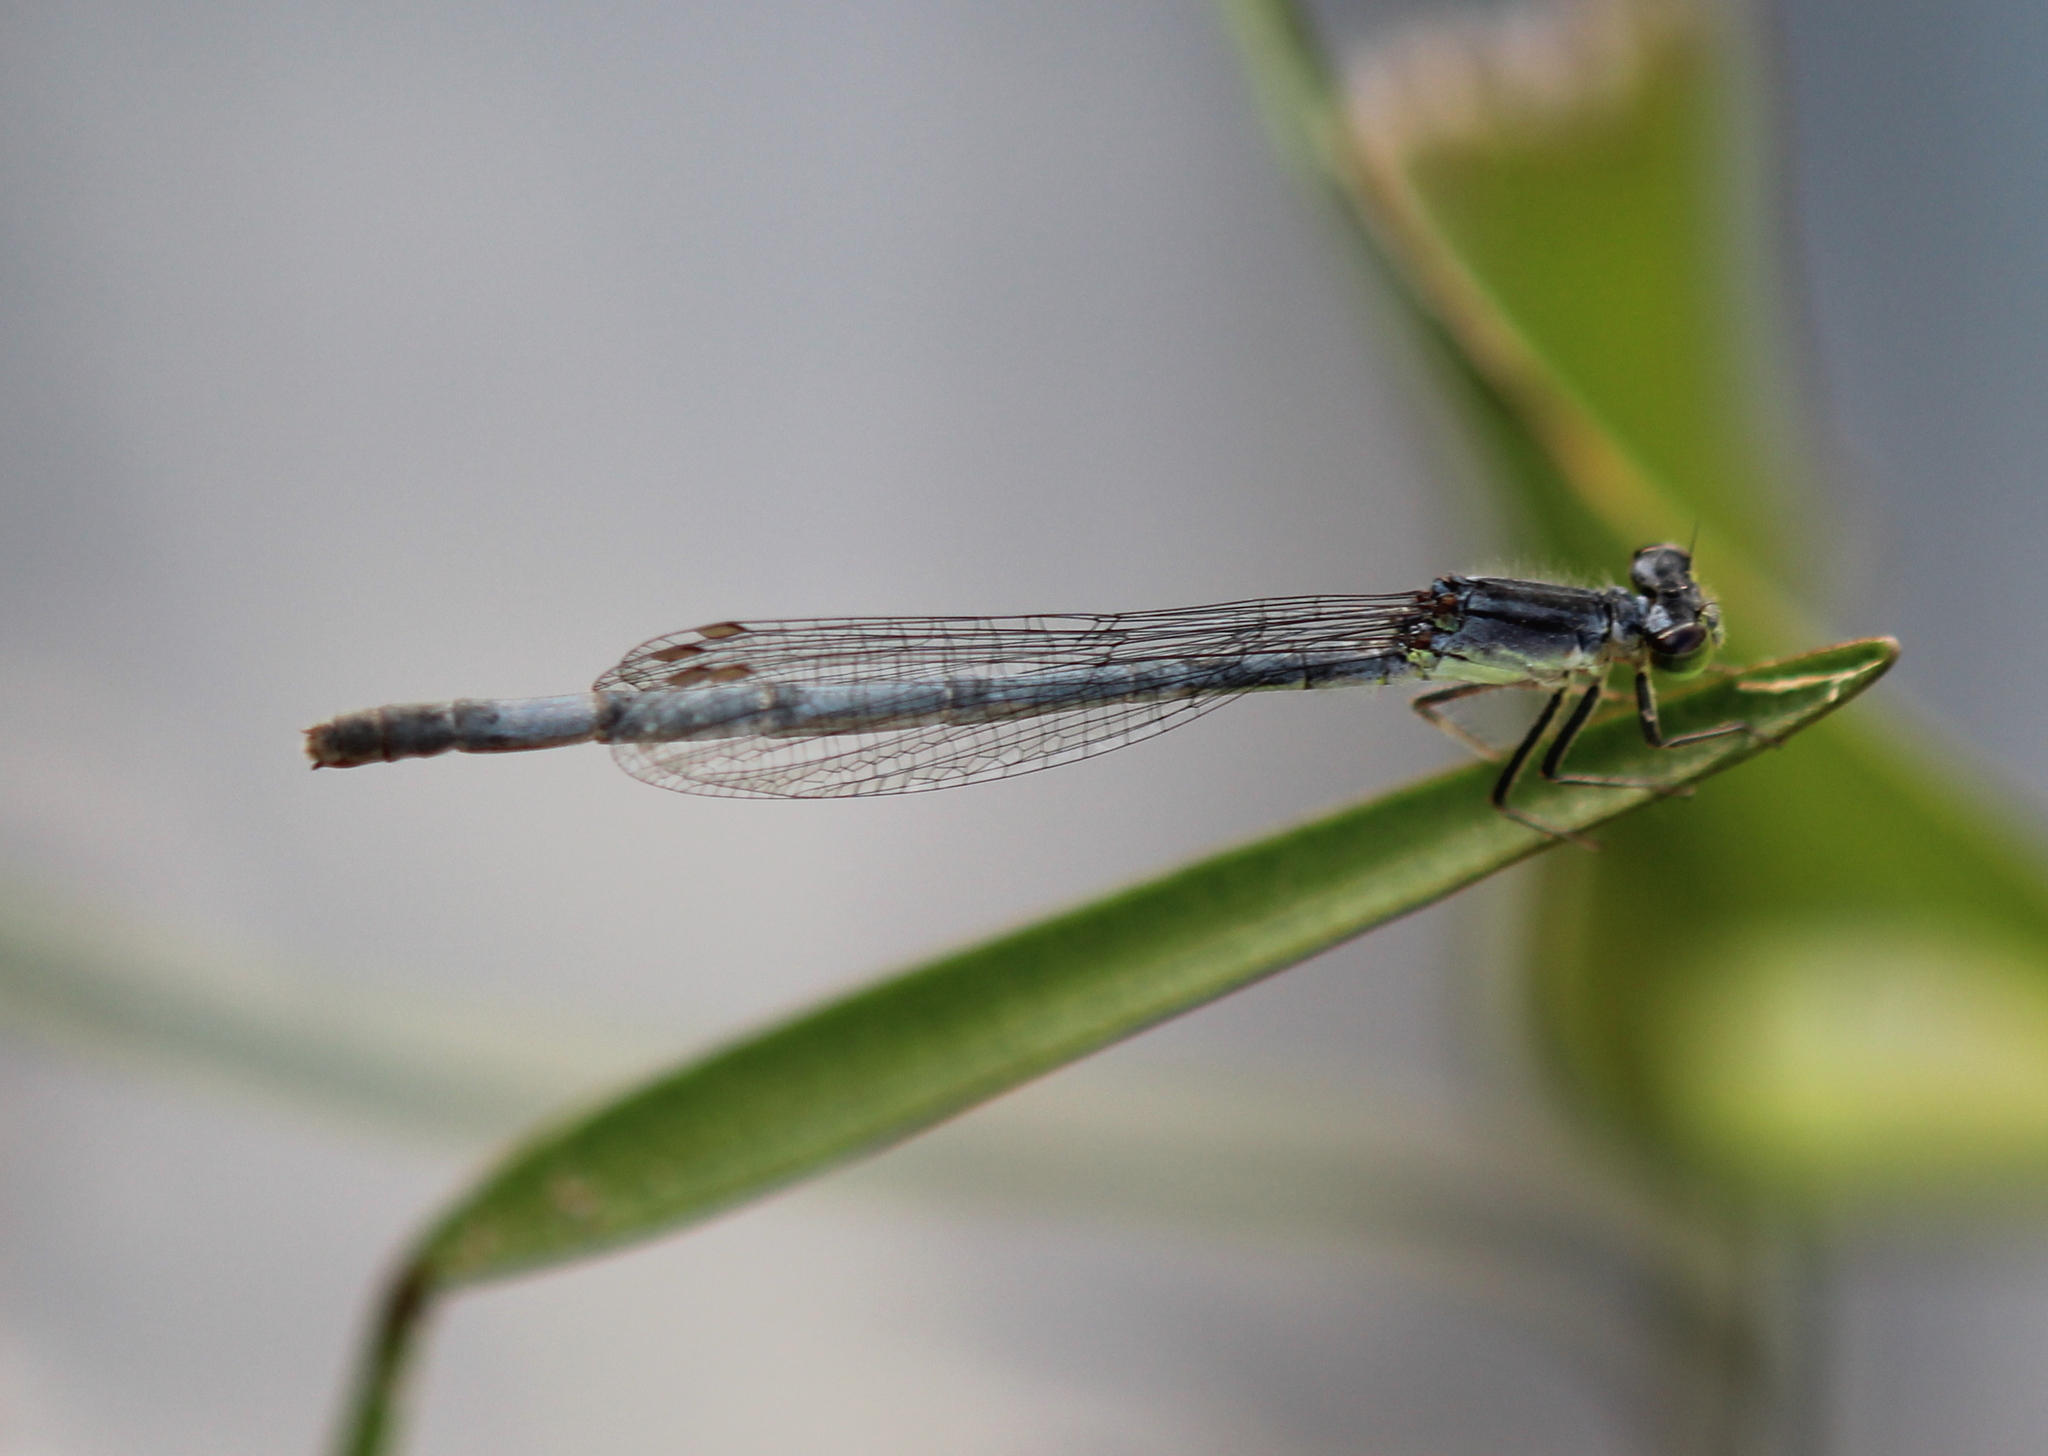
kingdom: Animalia
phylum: Arthropoda
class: Insecta
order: Odonata
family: Coenagrionidae
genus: Ischnura
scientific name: Ischnura verticalis
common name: Eastern forktail
